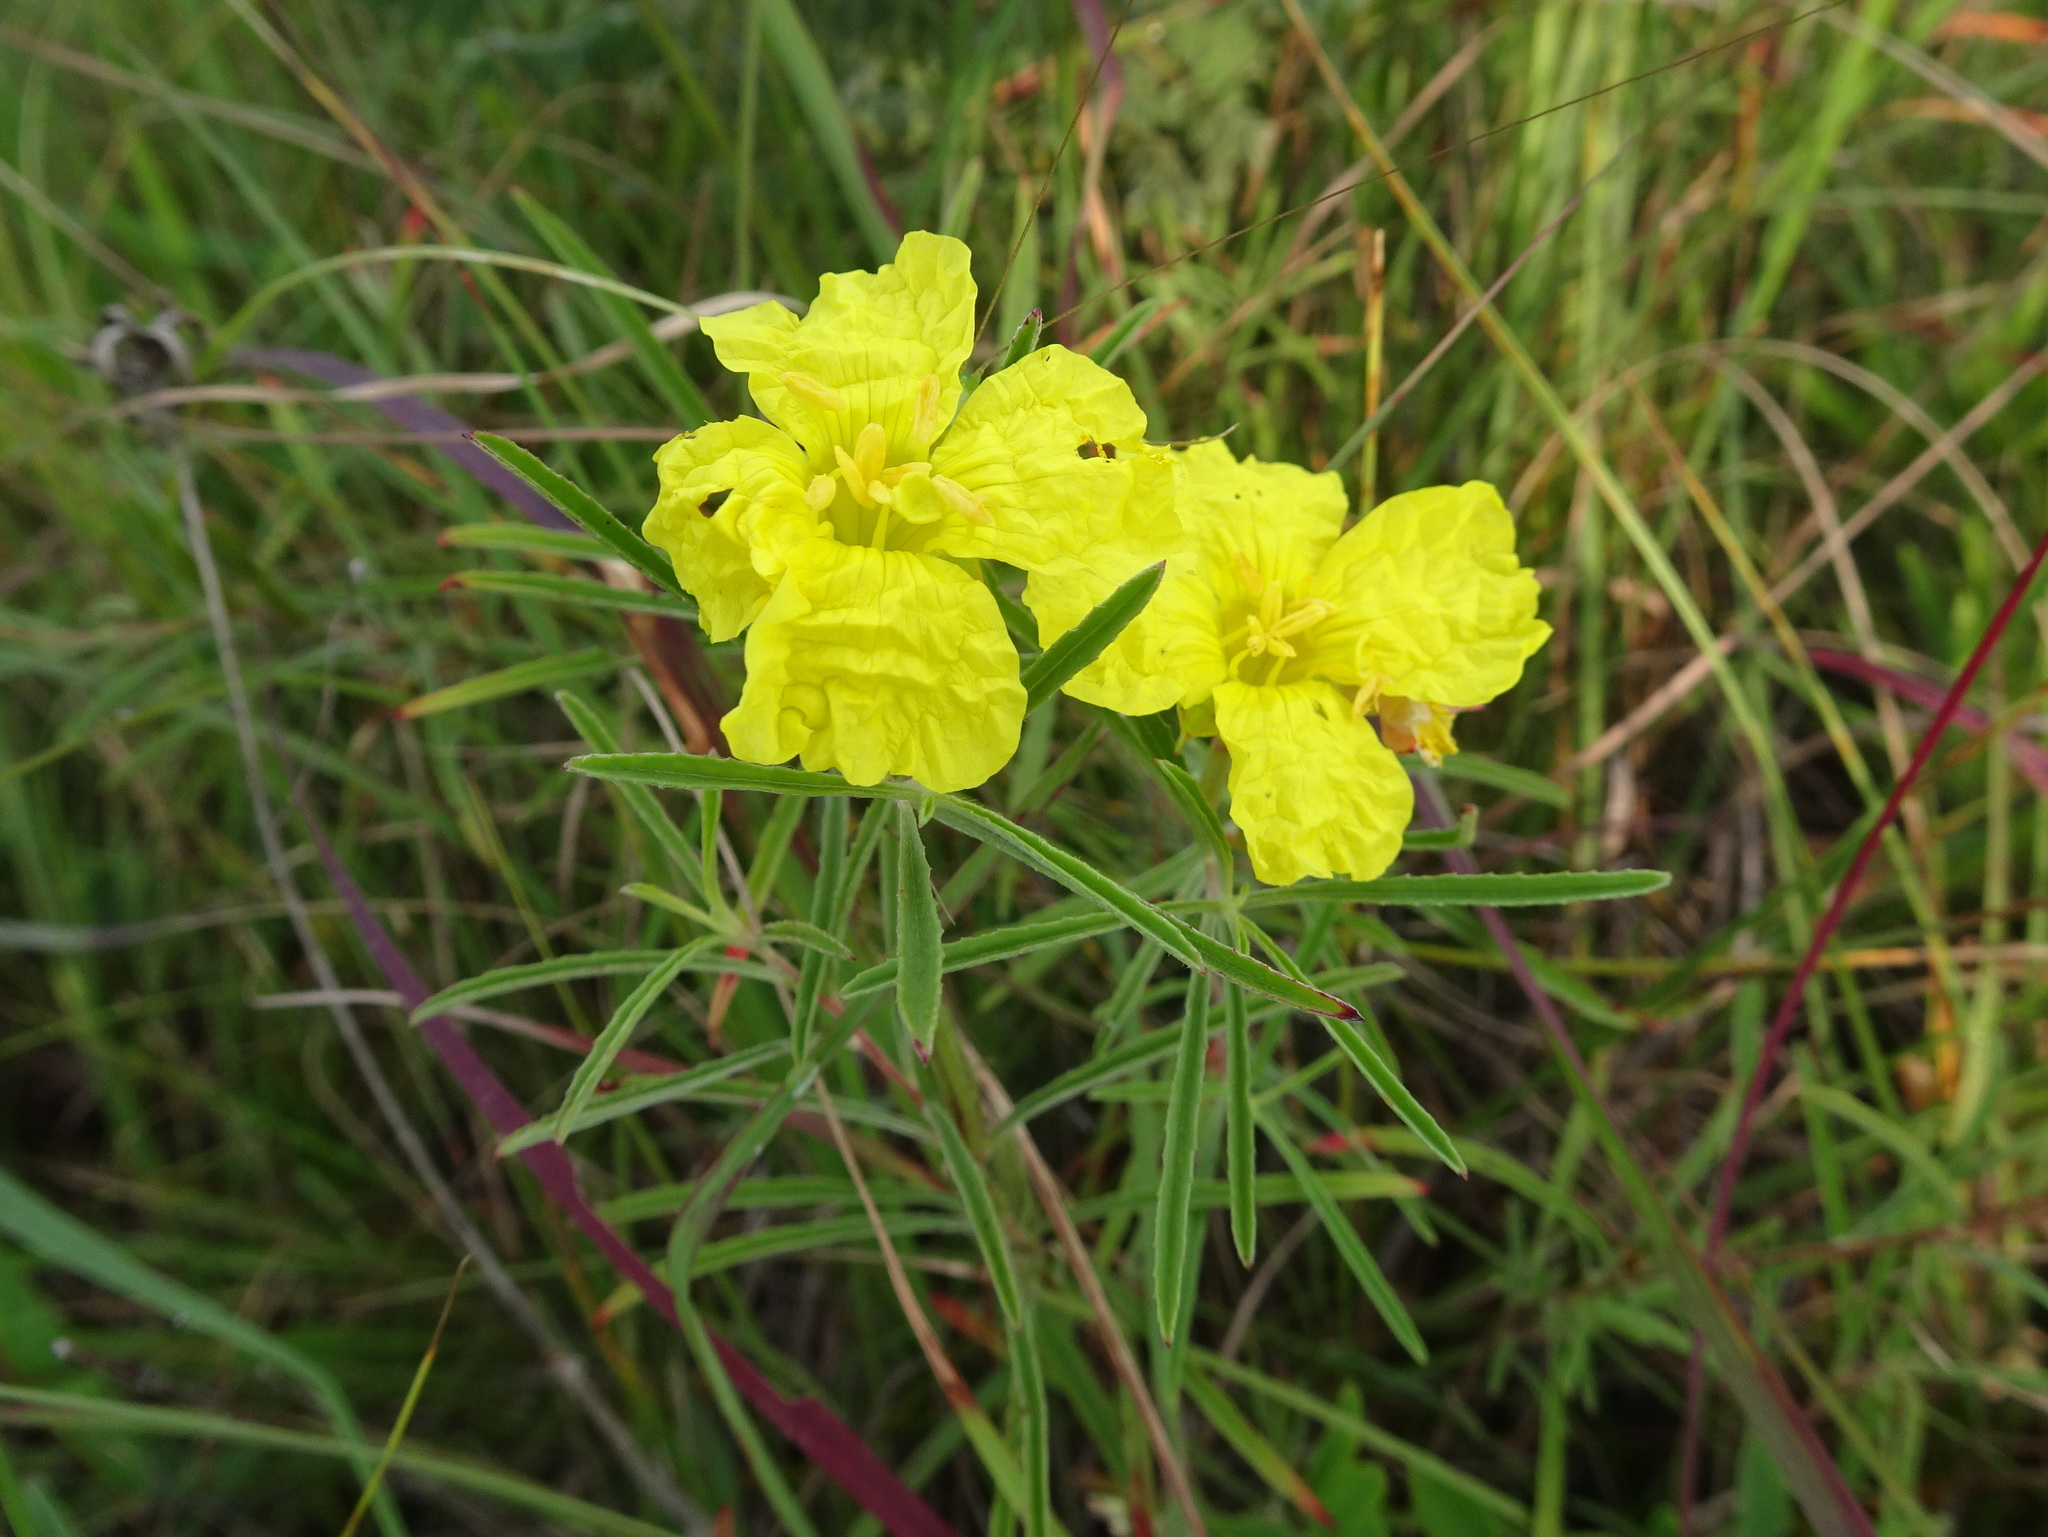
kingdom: Plantae
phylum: Tracheophyta
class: Magnoliopsida
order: Myrtales
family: Onagraceae
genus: Oenothera
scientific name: Oenothera serrulata
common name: Half-shrub calylophus
